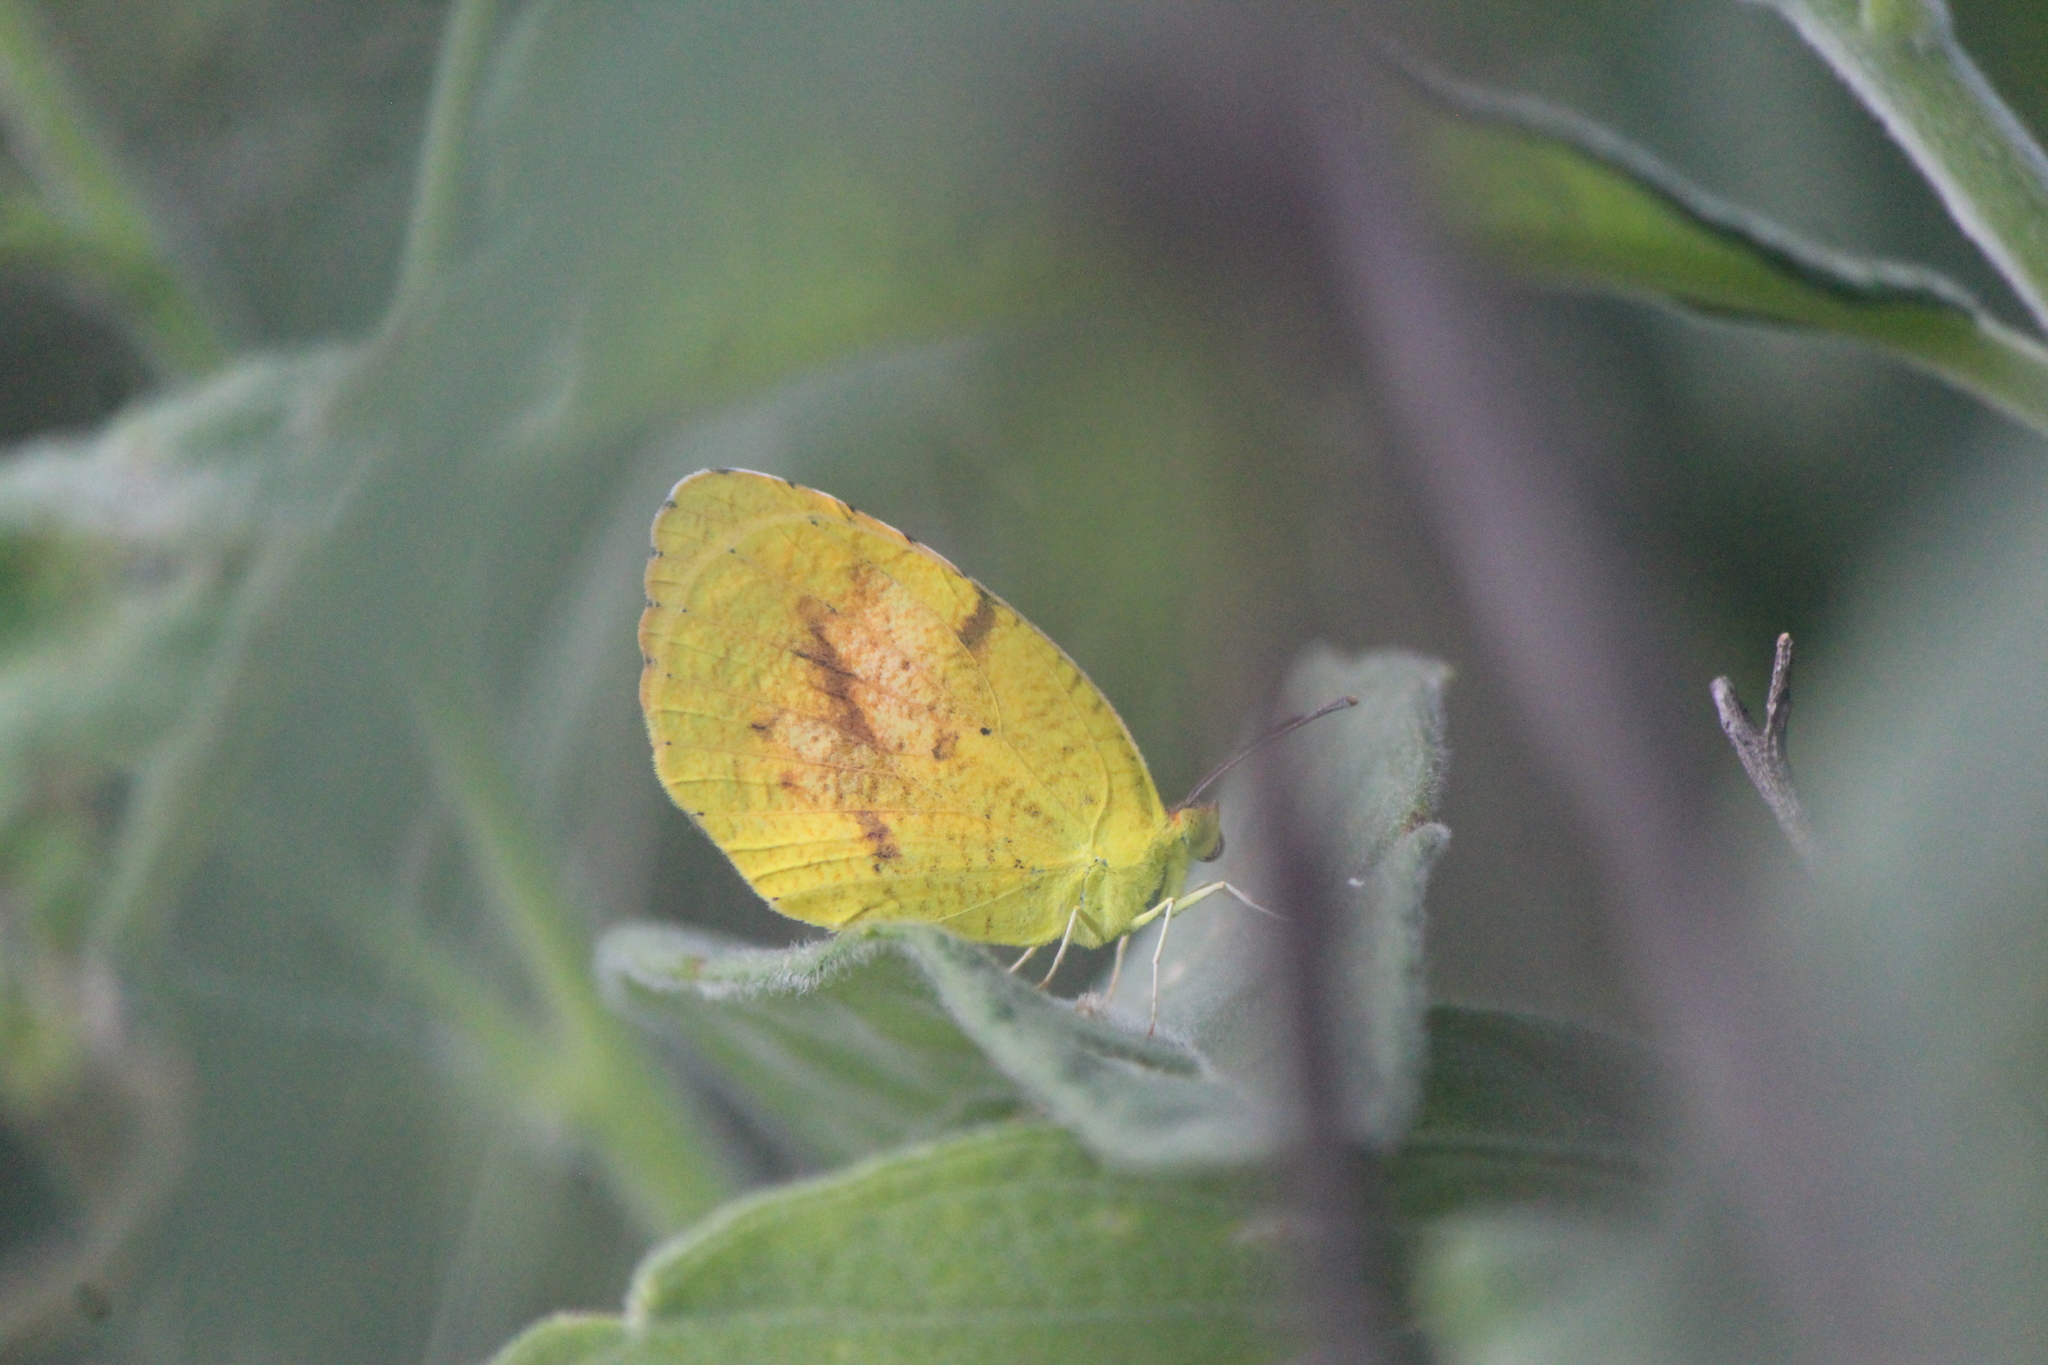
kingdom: Animalia
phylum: Arthropoda
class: Insecta
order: Lepidoptera
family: Pieridae
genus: Abaeis
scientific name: Abaeis nicippe
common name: Sleepy orange
